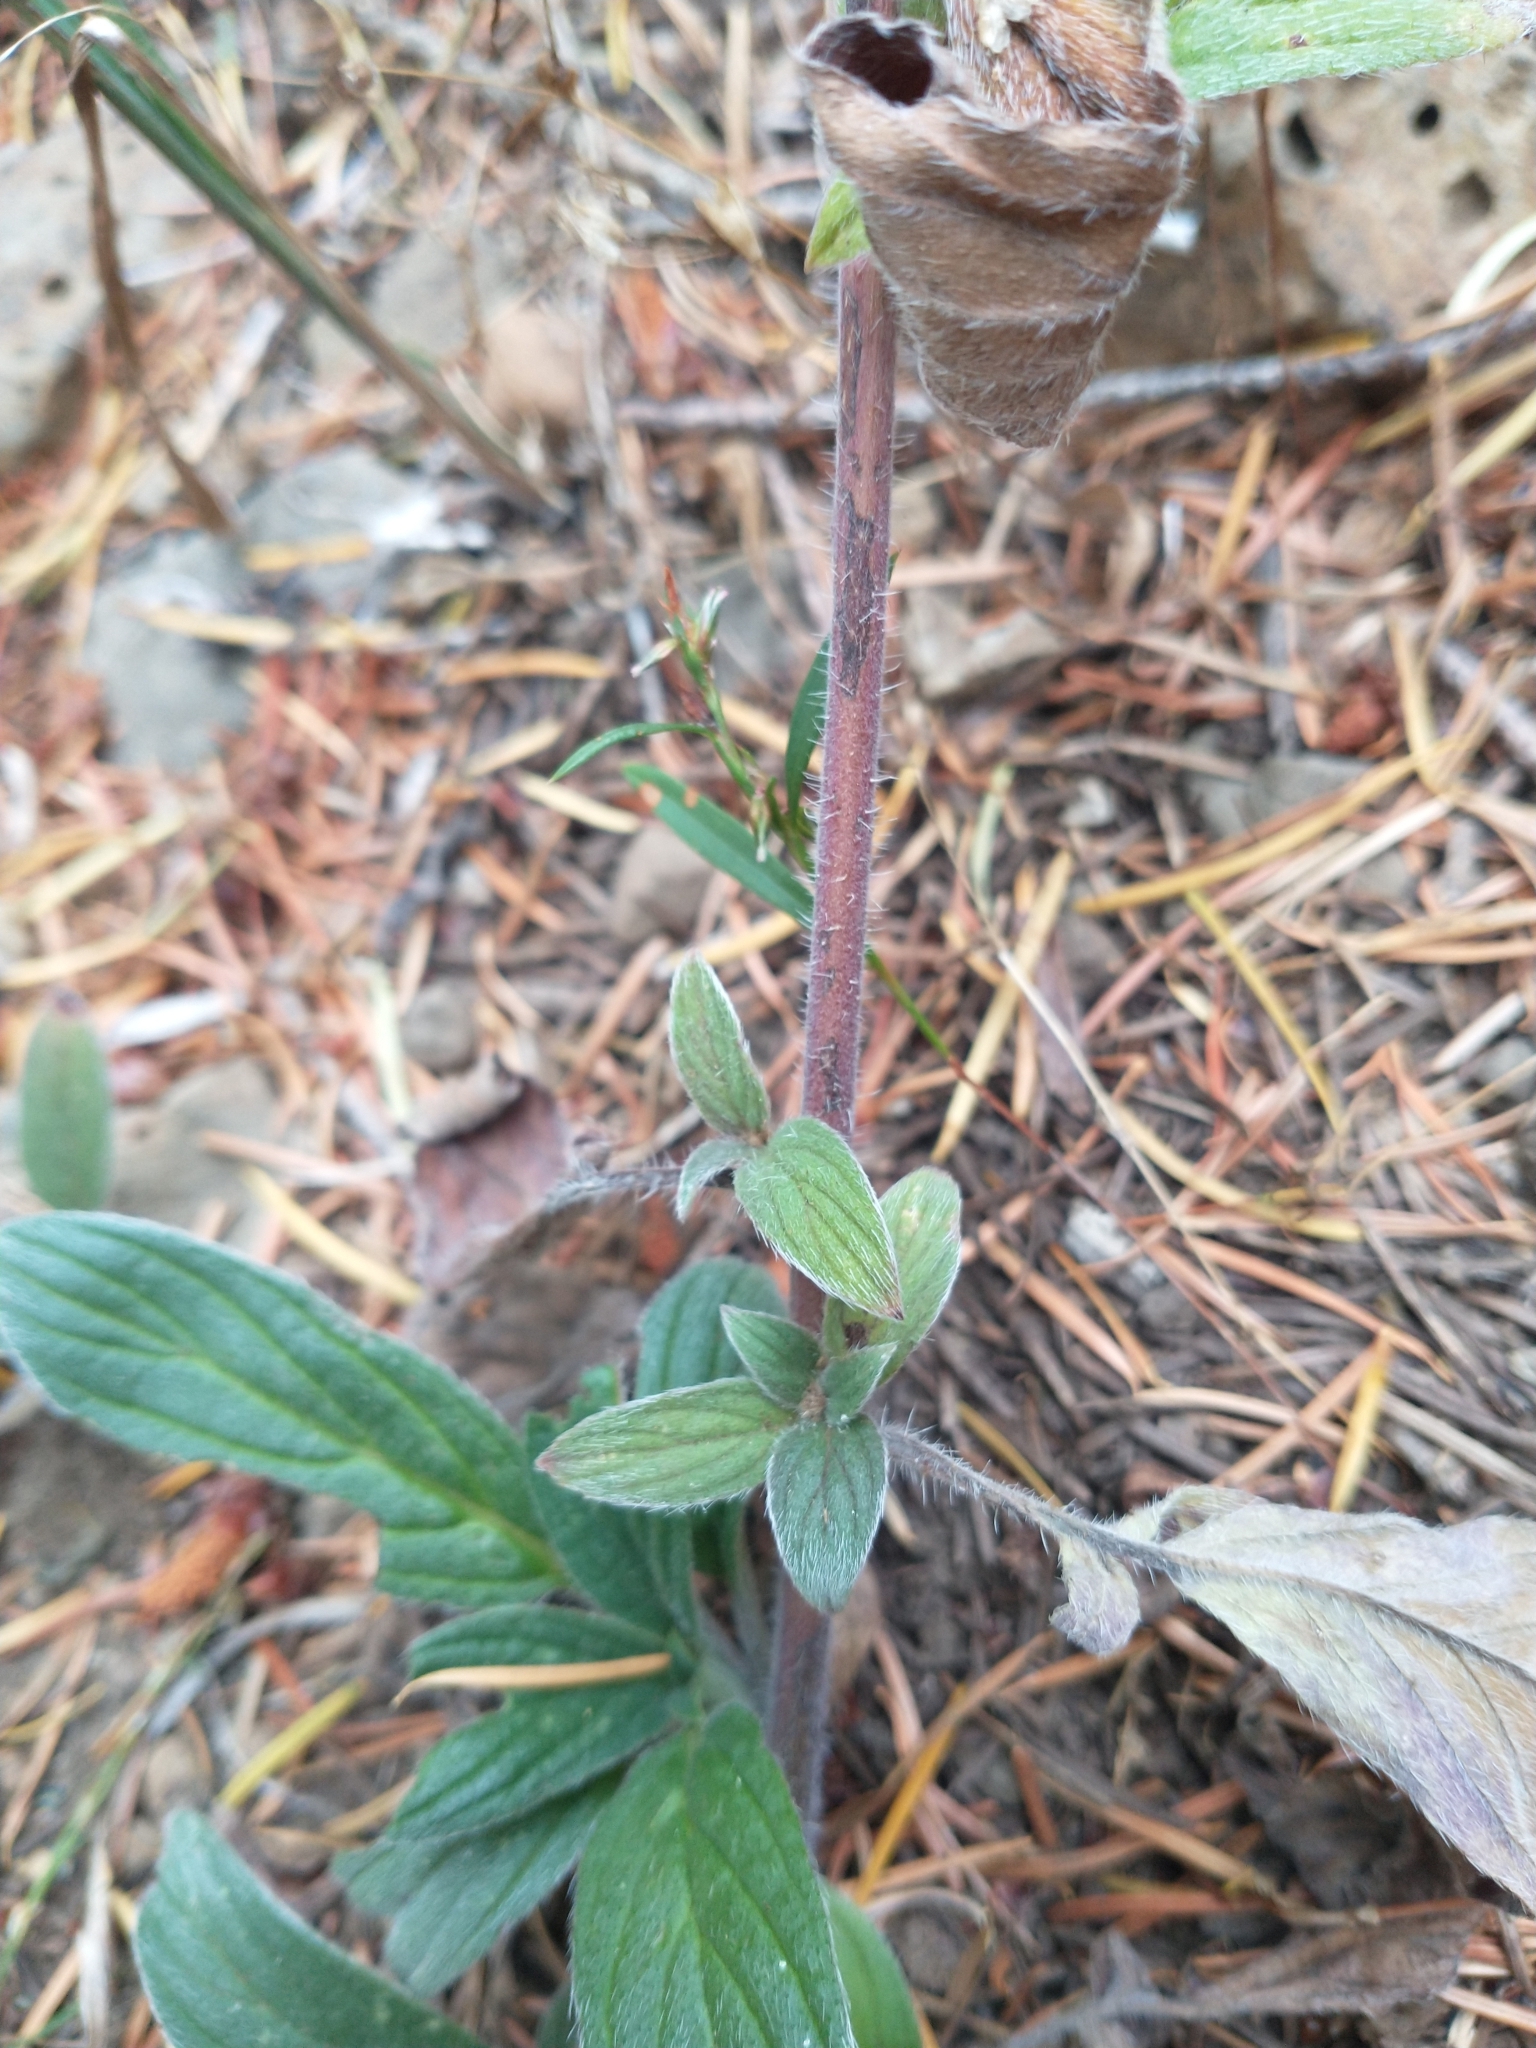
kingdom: Plantae
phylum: Tracheophyta
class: Magnoliopsida
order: Boraginales
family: Hydrophyllaceae
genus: Phacelia
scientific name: Phacelia nemoralis
